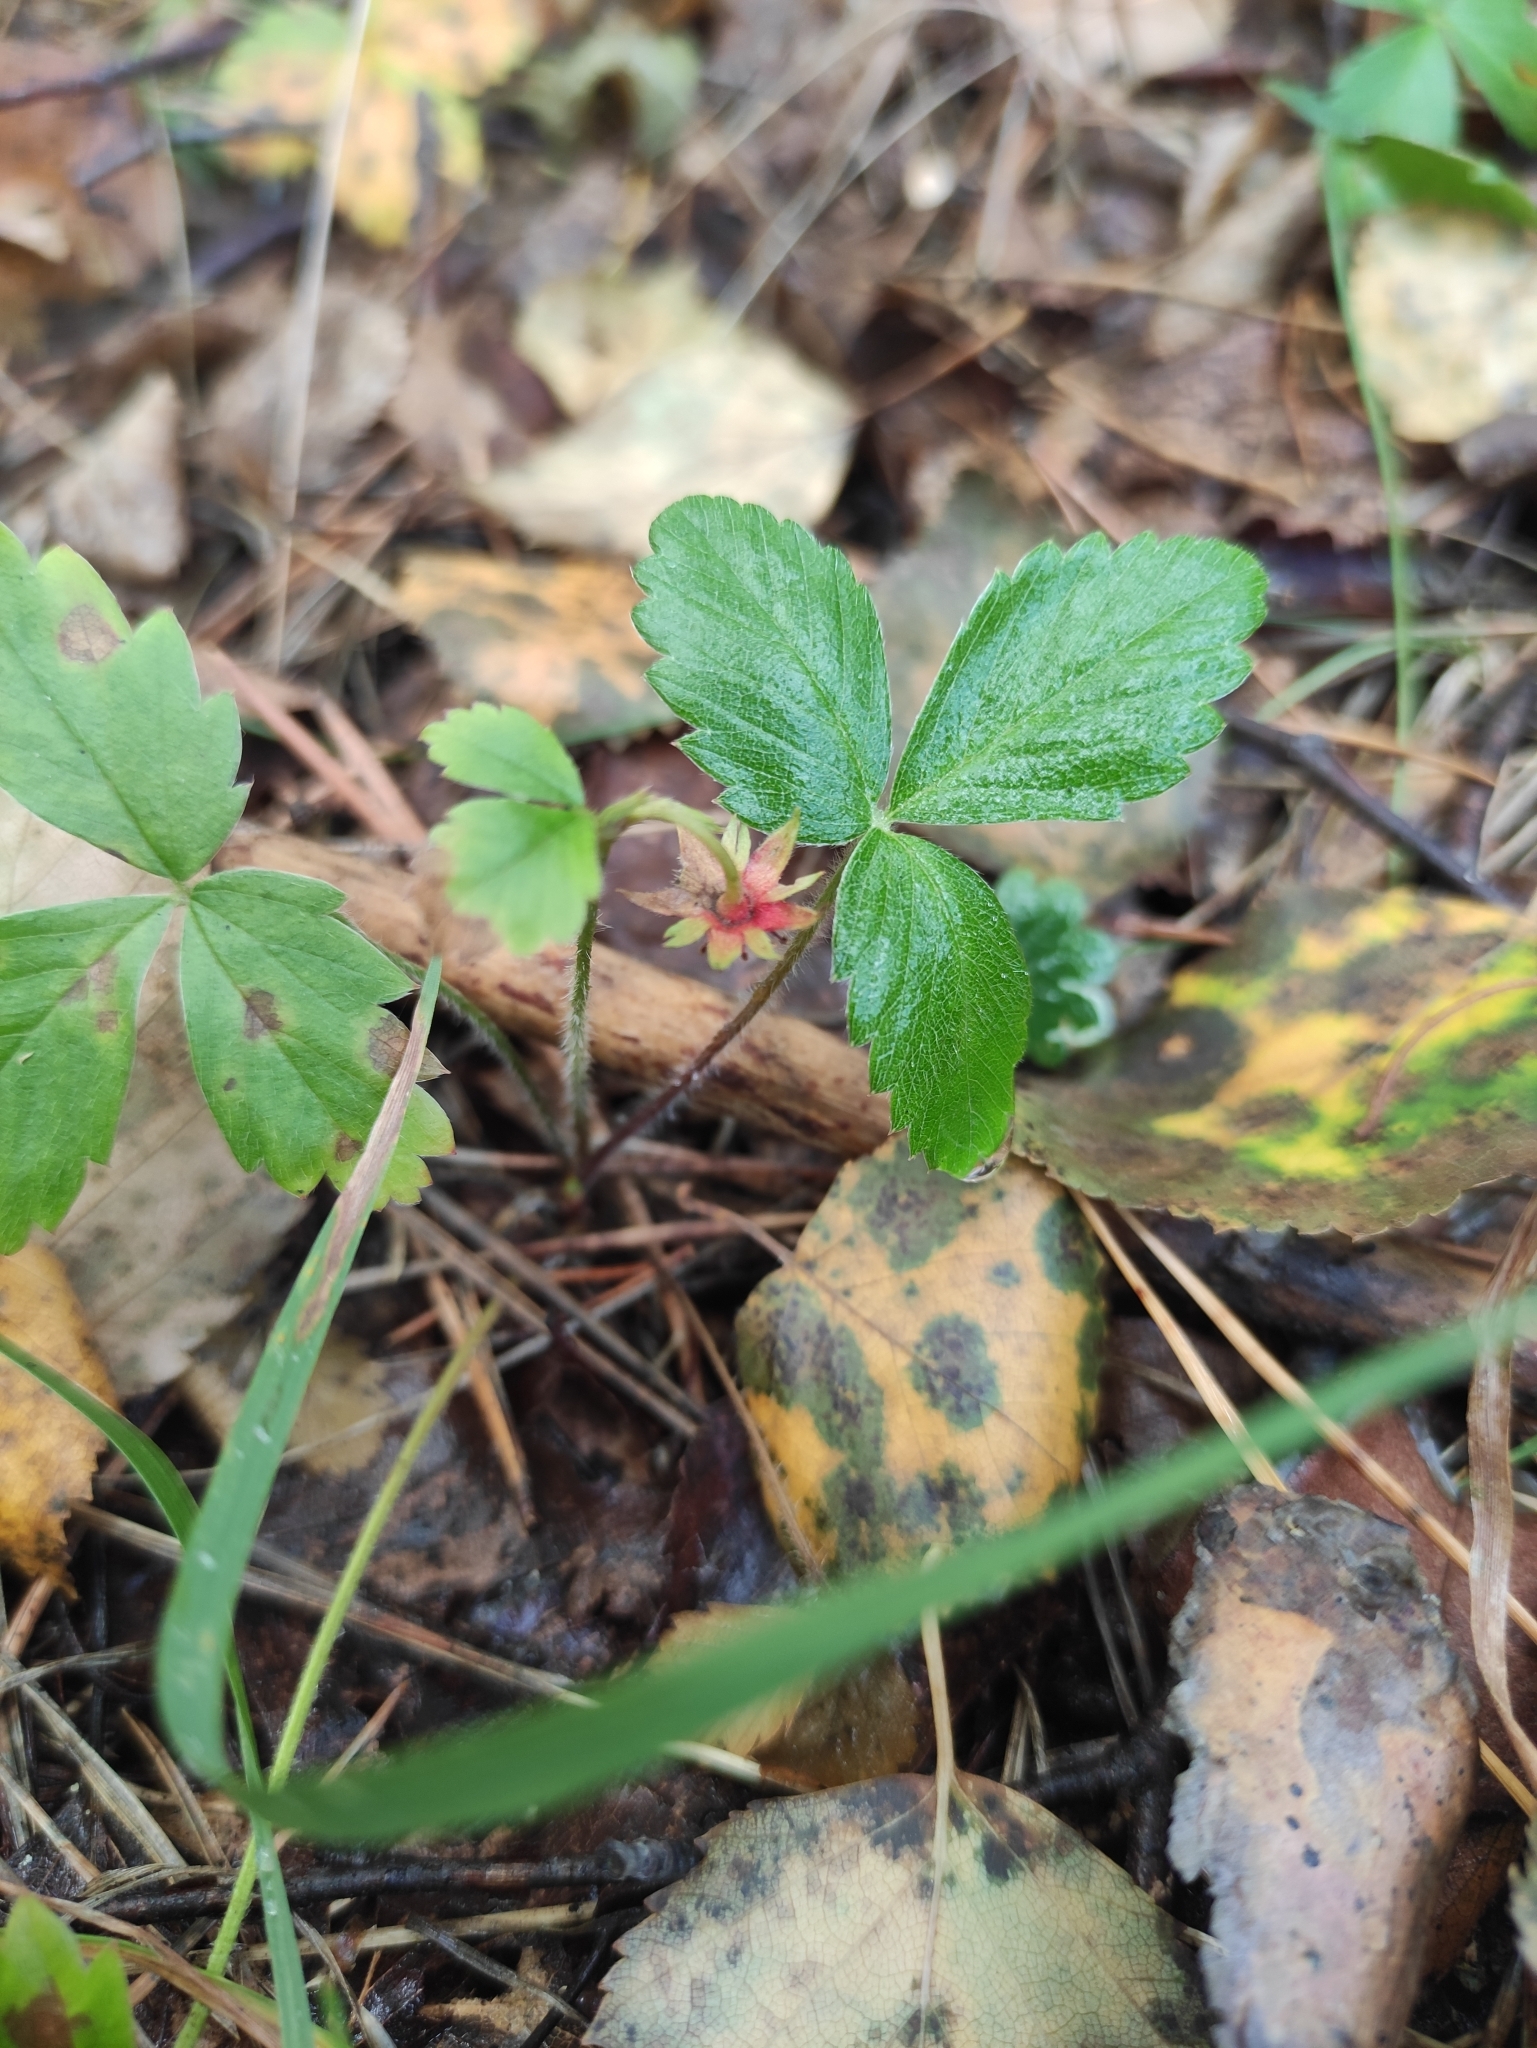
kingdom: Plantae
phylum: Tracheophyta
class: Magnoliopsida
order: Rosales
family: Rosaceae
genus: Fragaria
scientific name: Fragaria vesca
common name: Wild strawberry
